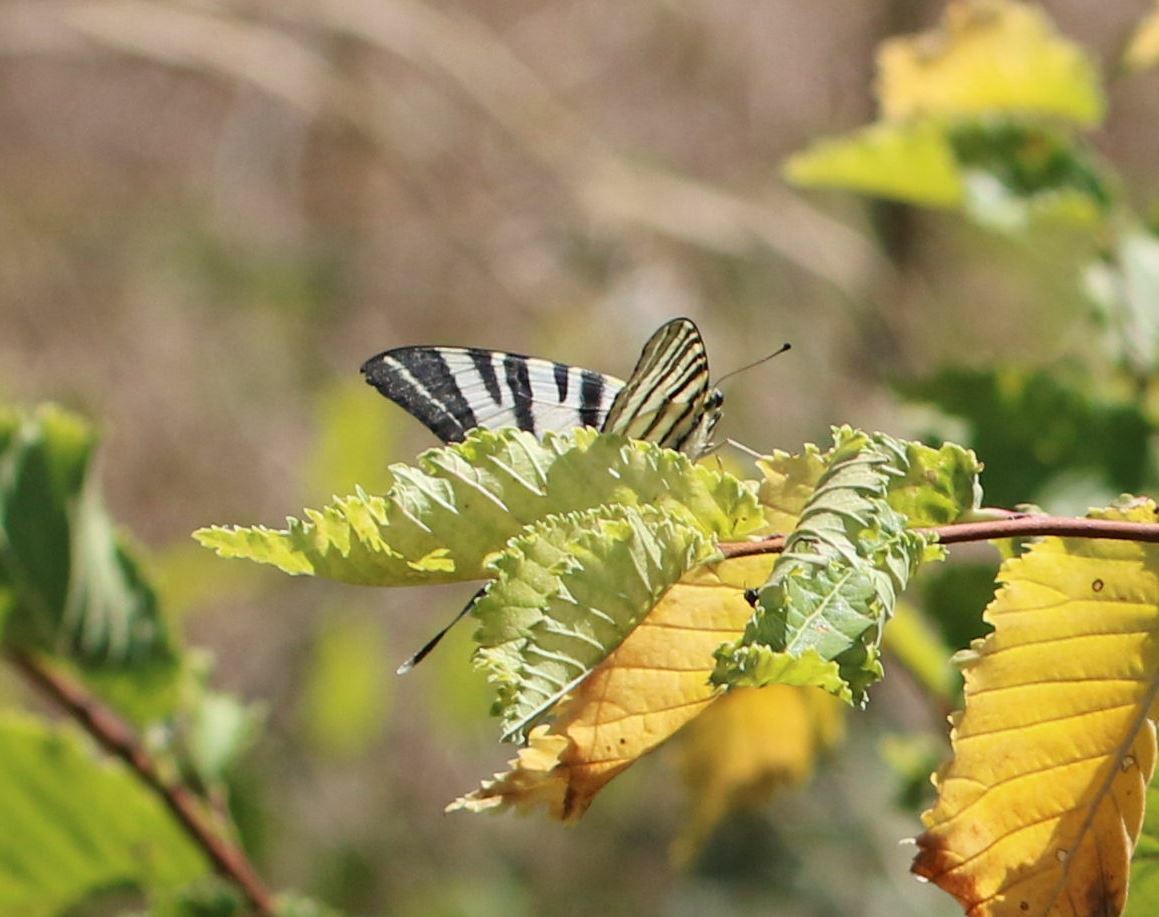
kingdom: Animalia
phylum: Arthropoda
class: Insecta
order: Lepidoptera
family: Papilionidae
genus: Iphiclides
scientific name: Iphiclides podalirius
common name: Scarce swallowtail
